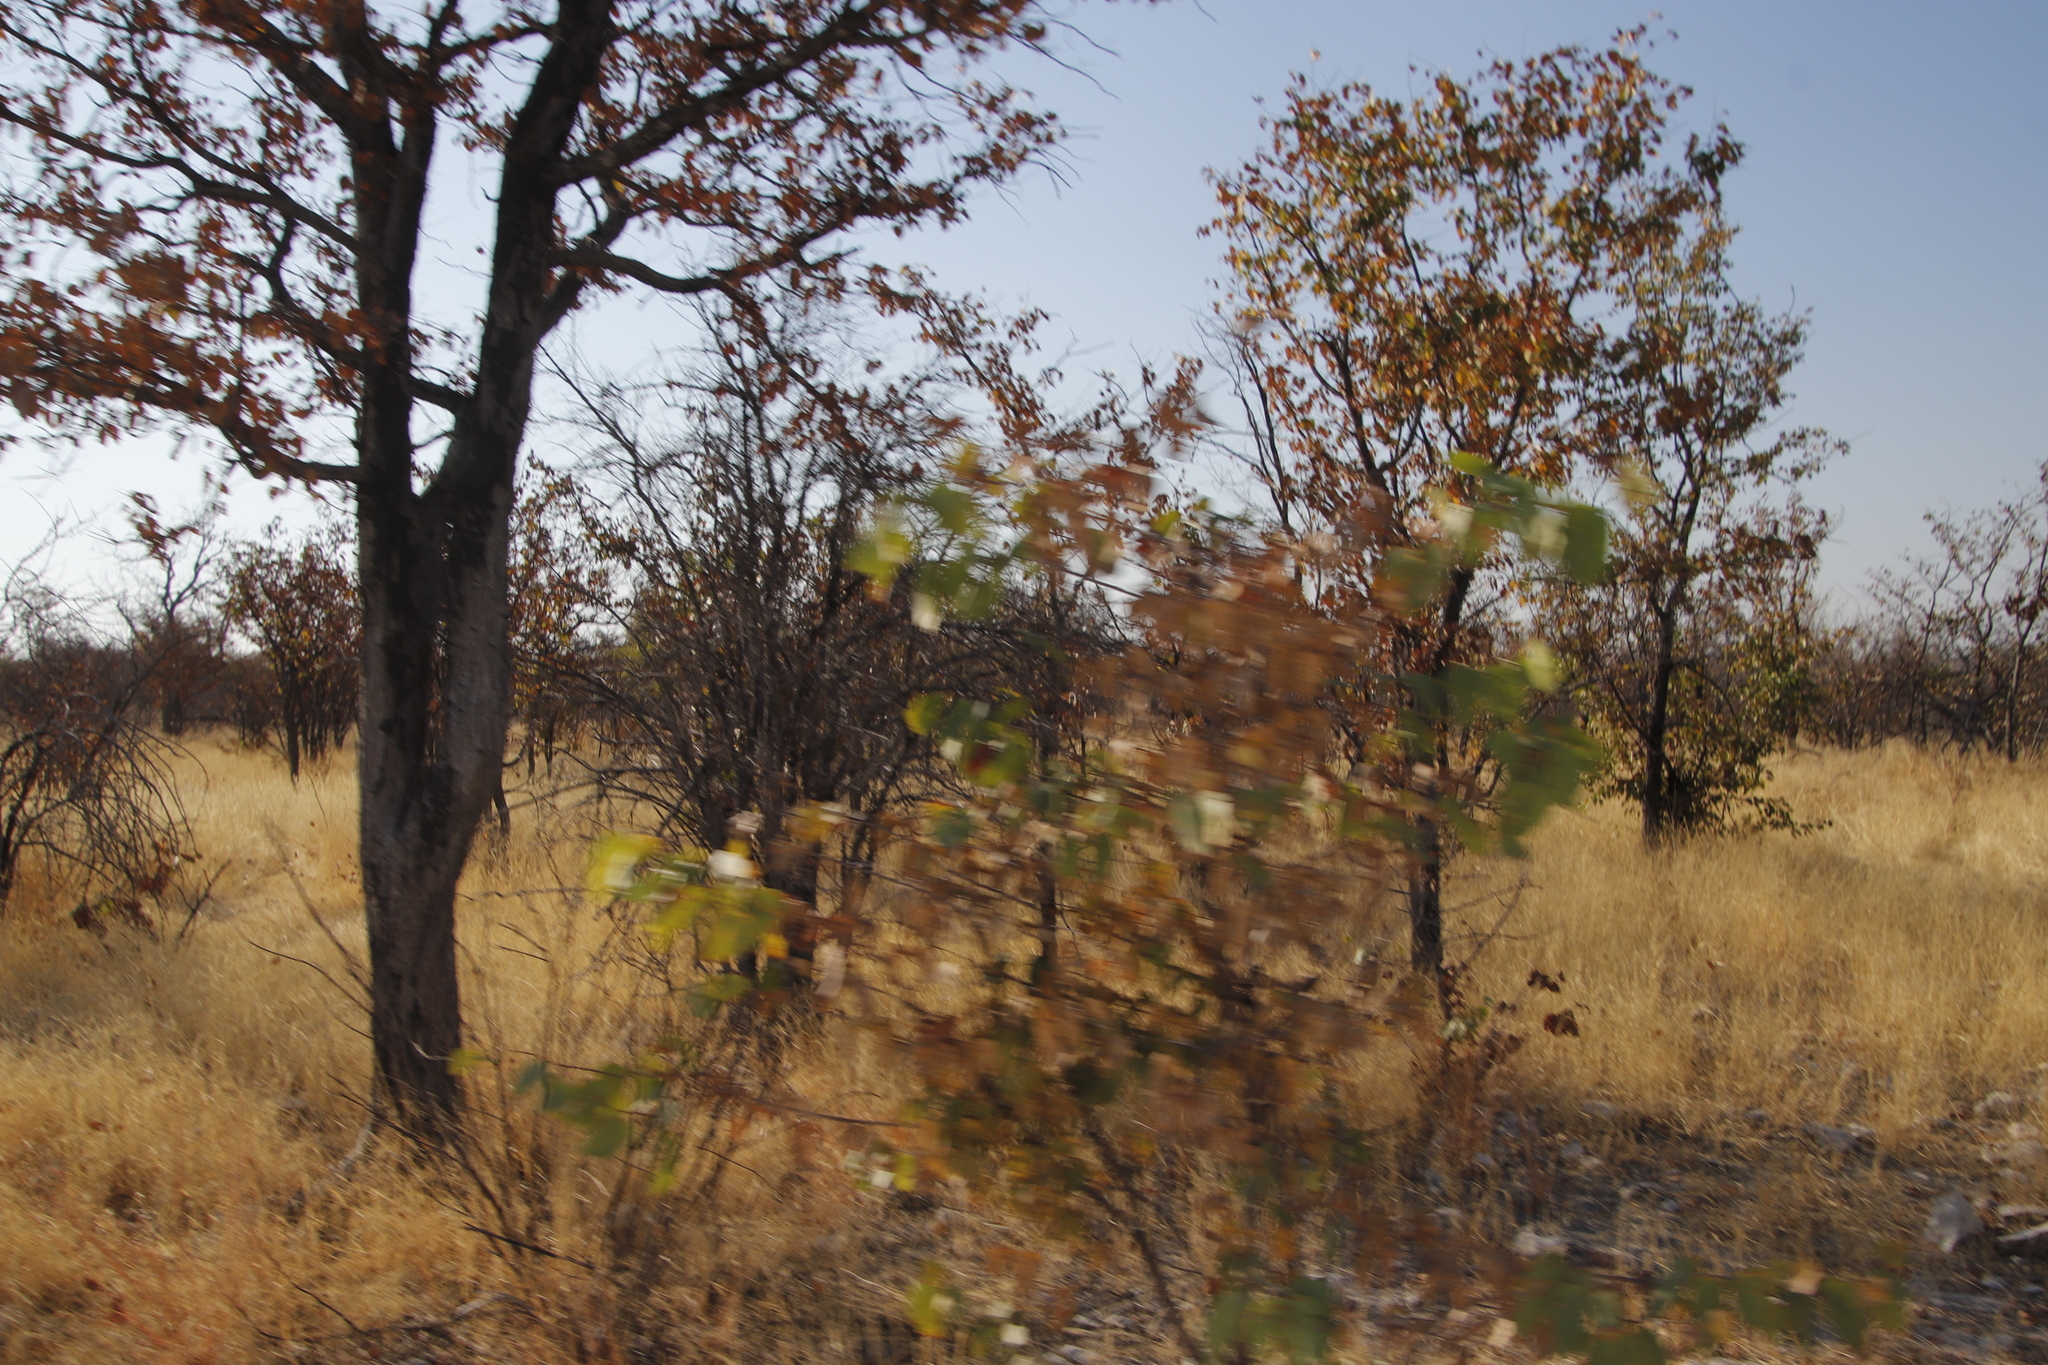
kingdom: Plantae
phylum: Tracheophyta
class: Magnoliopsida
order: Fabales
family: Fabaceae
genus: Colophospermum
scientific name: Colophospermum mopane
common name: Mopane
